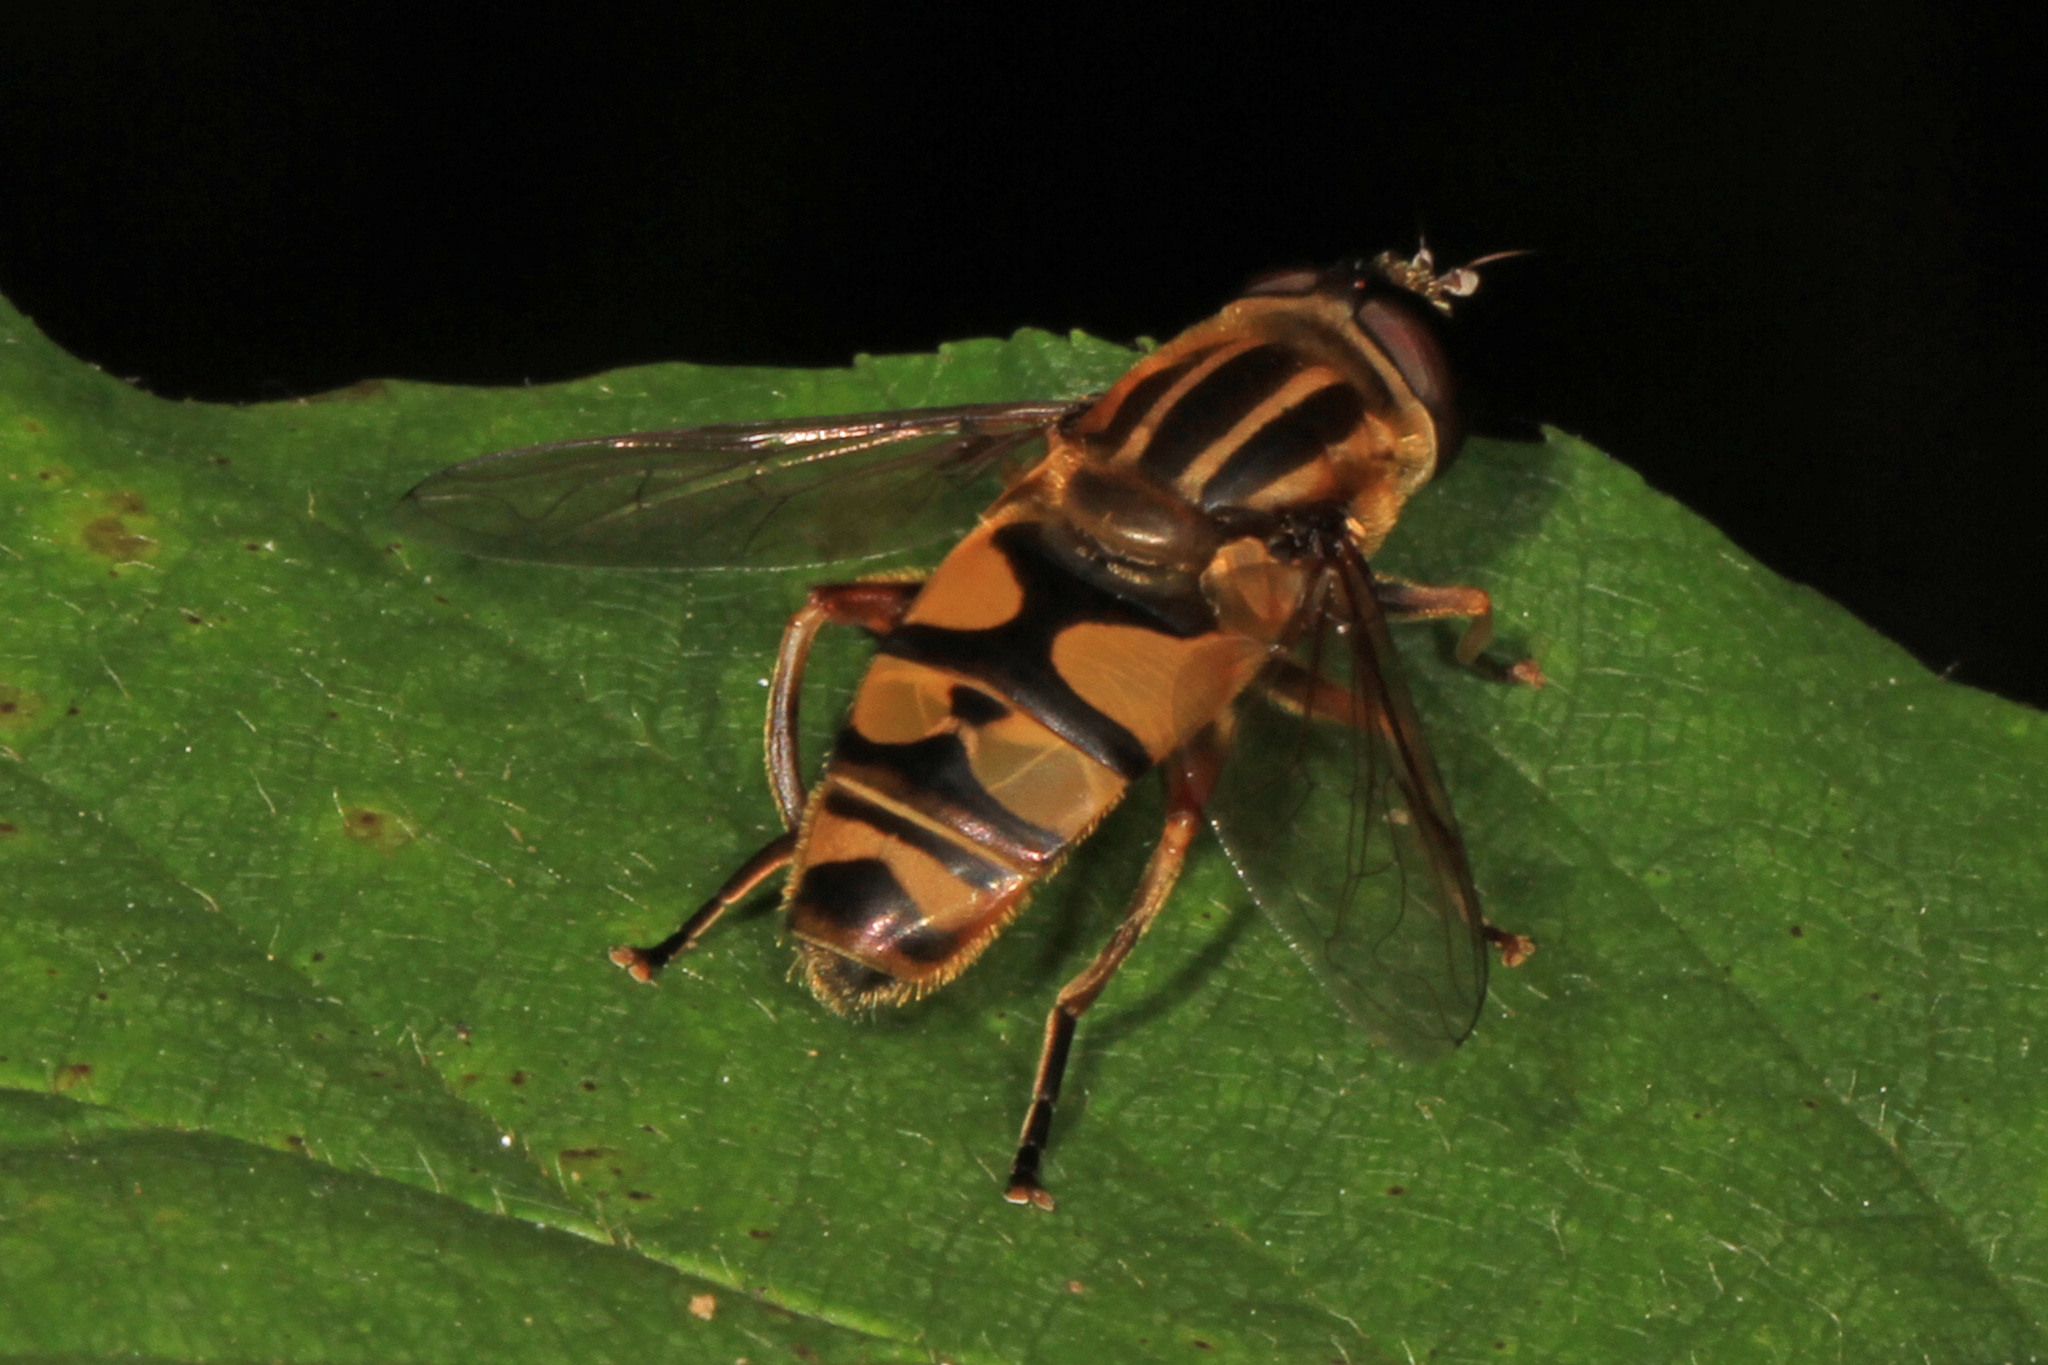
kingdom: Animalia
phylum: Arthropoda
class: Insecta
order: Diptera
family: Syrphidae
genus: Helophilus
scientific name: Helophilus fasciatus
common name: Narrow-headed marsh fly
